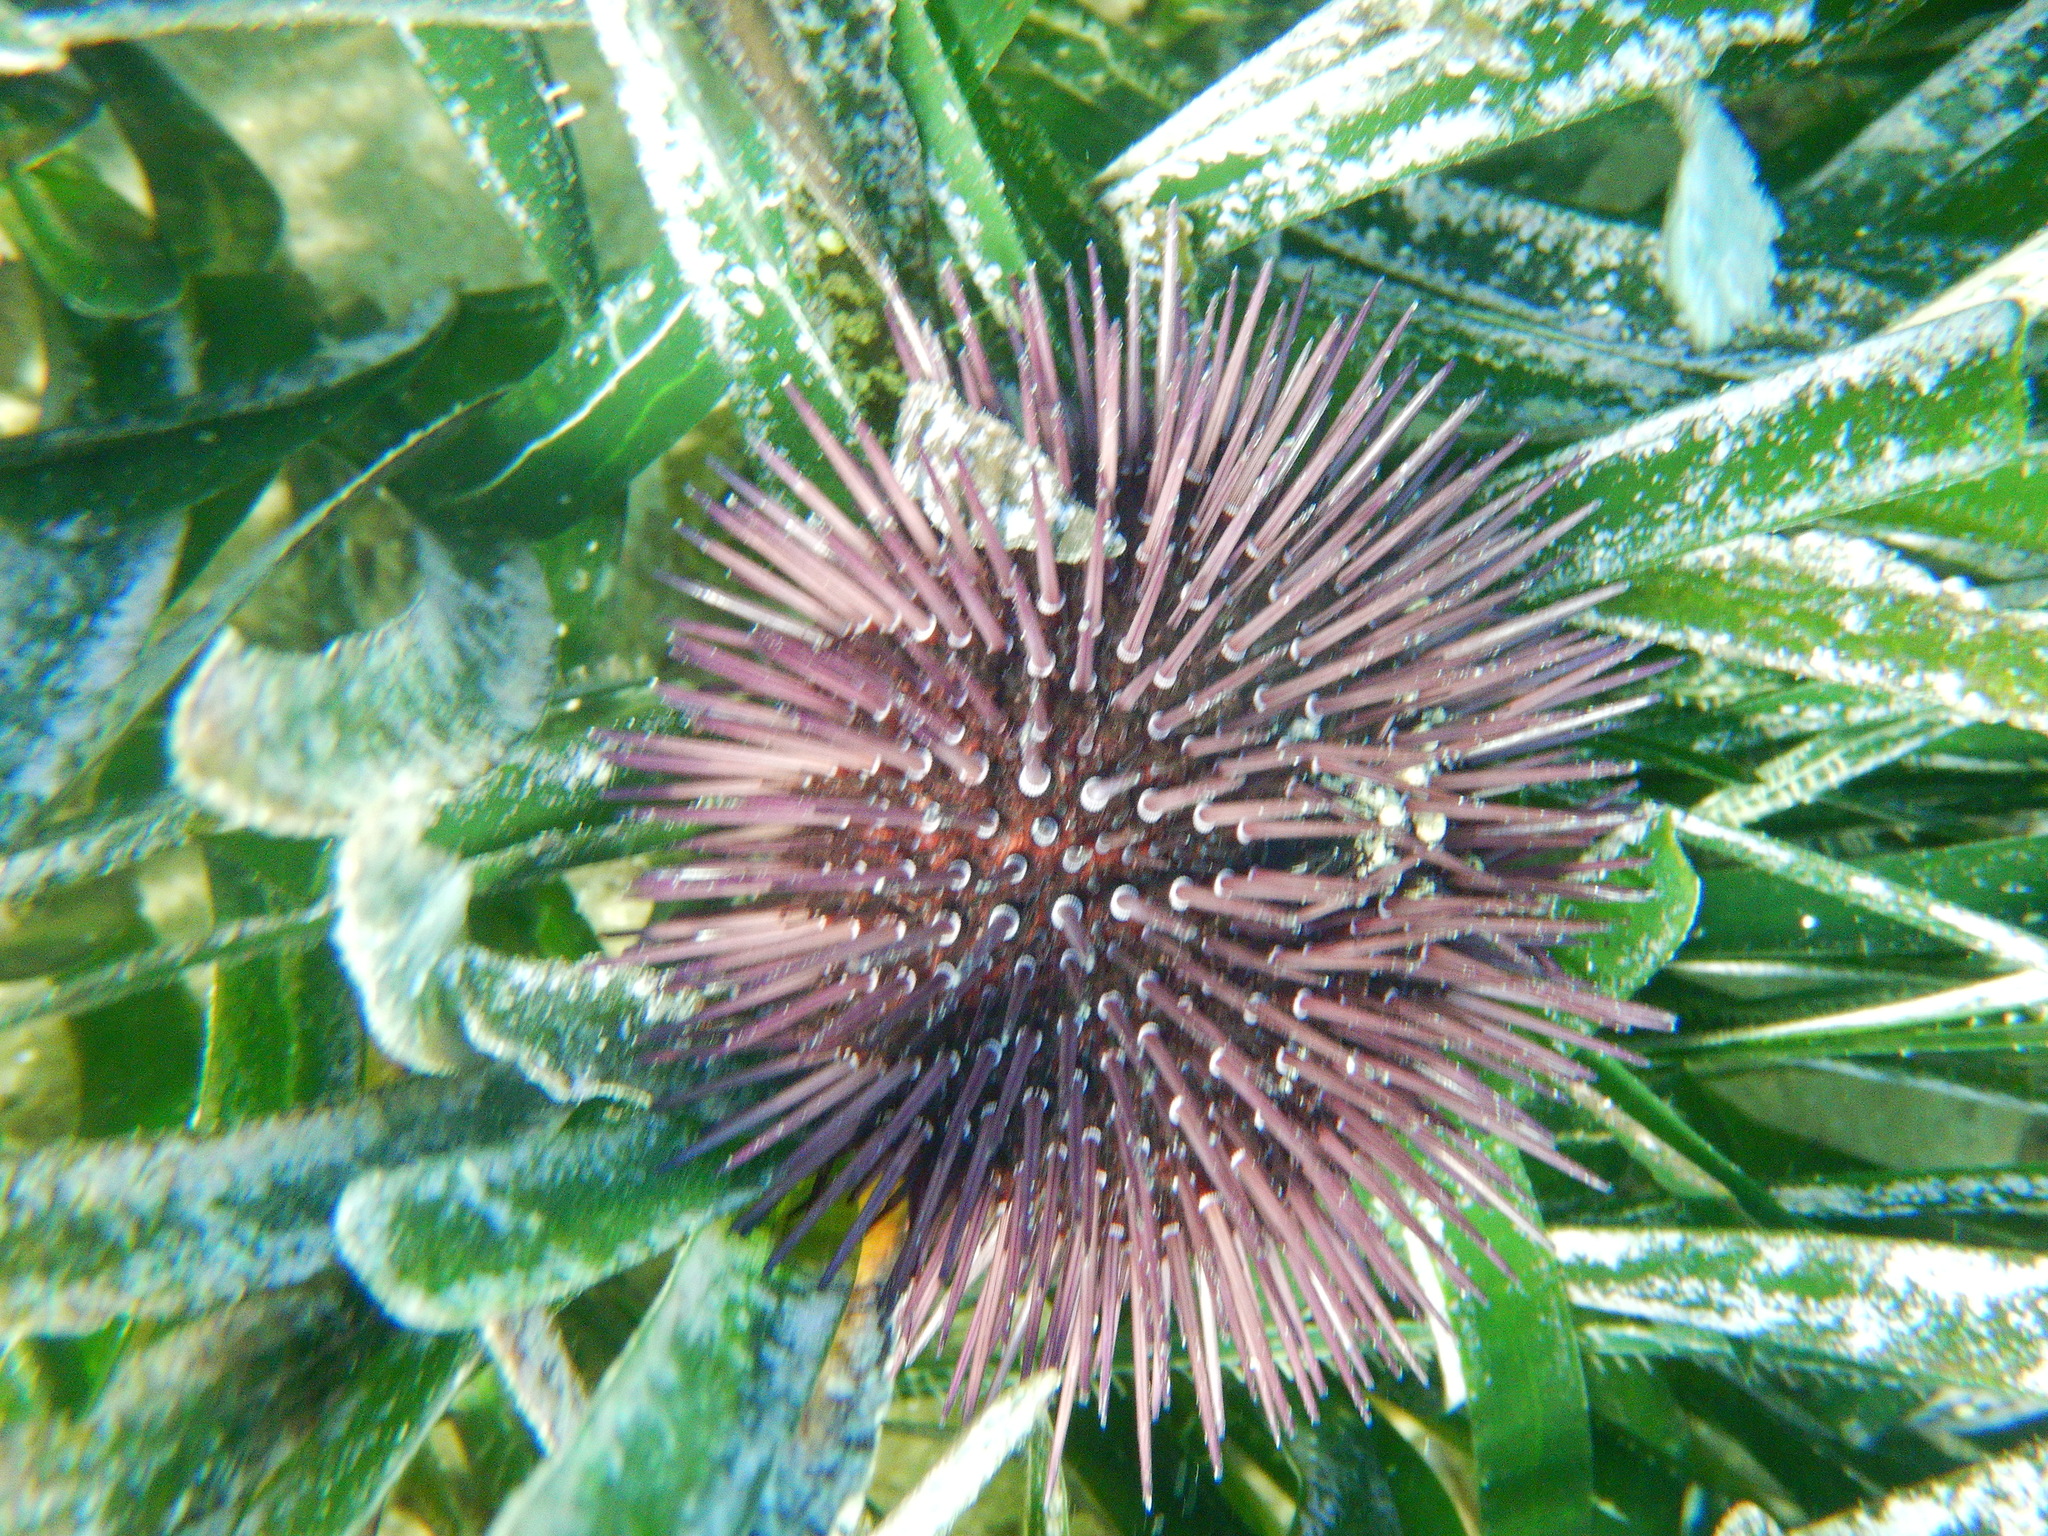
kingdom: Animalia
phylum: Echinodermata
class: Echinoidea
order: Camarodonta
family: Parechinidae
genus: Paracentrotus
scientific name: Paracentrotus lividus
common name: Purple sea urchin
